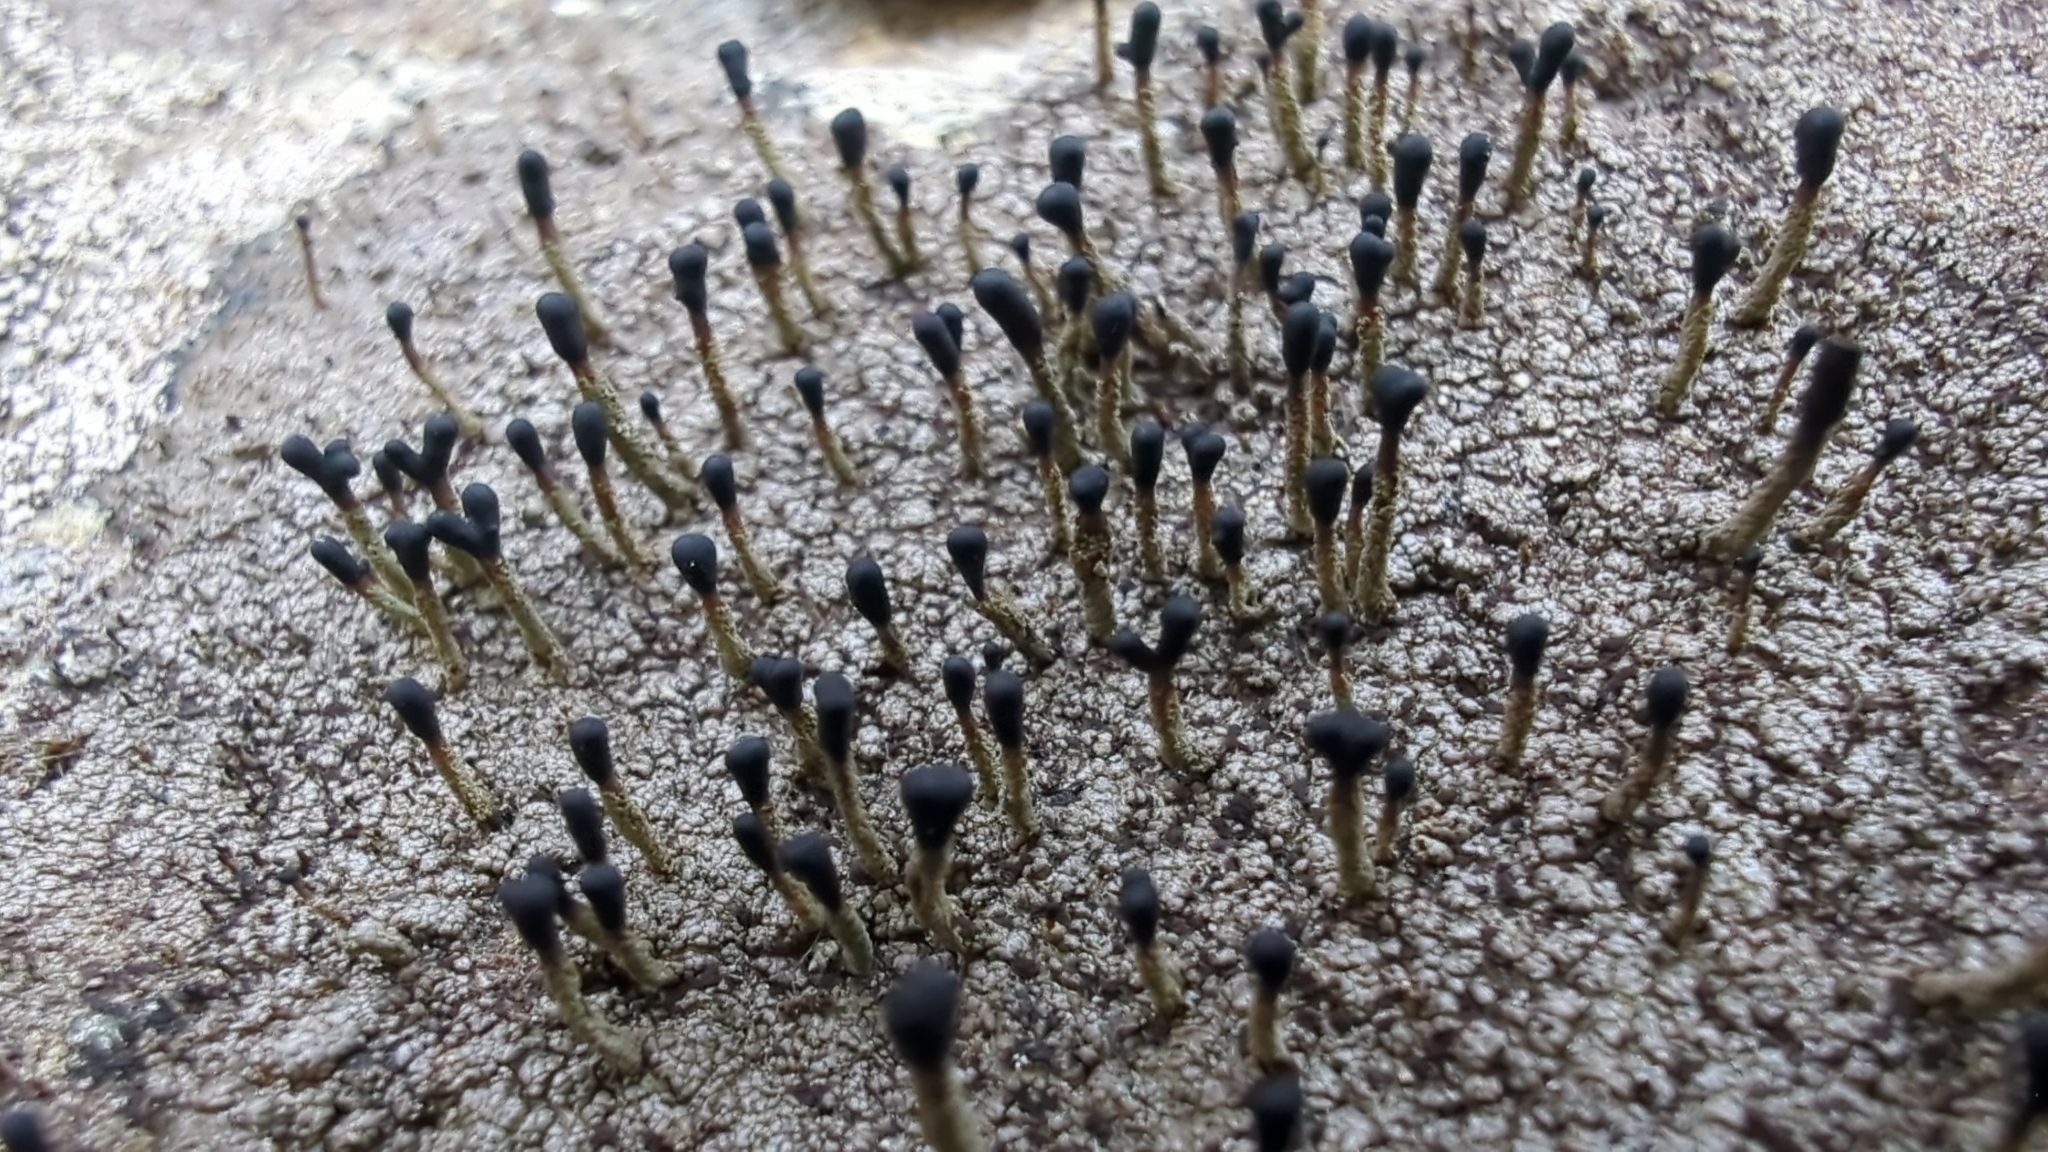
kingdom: Fungi
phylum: Ascomycota
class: Lecanoromycetes
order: Lecanorales
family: Cladoniaceae
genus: Pilophorus
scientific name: Pilophorus clavatus
